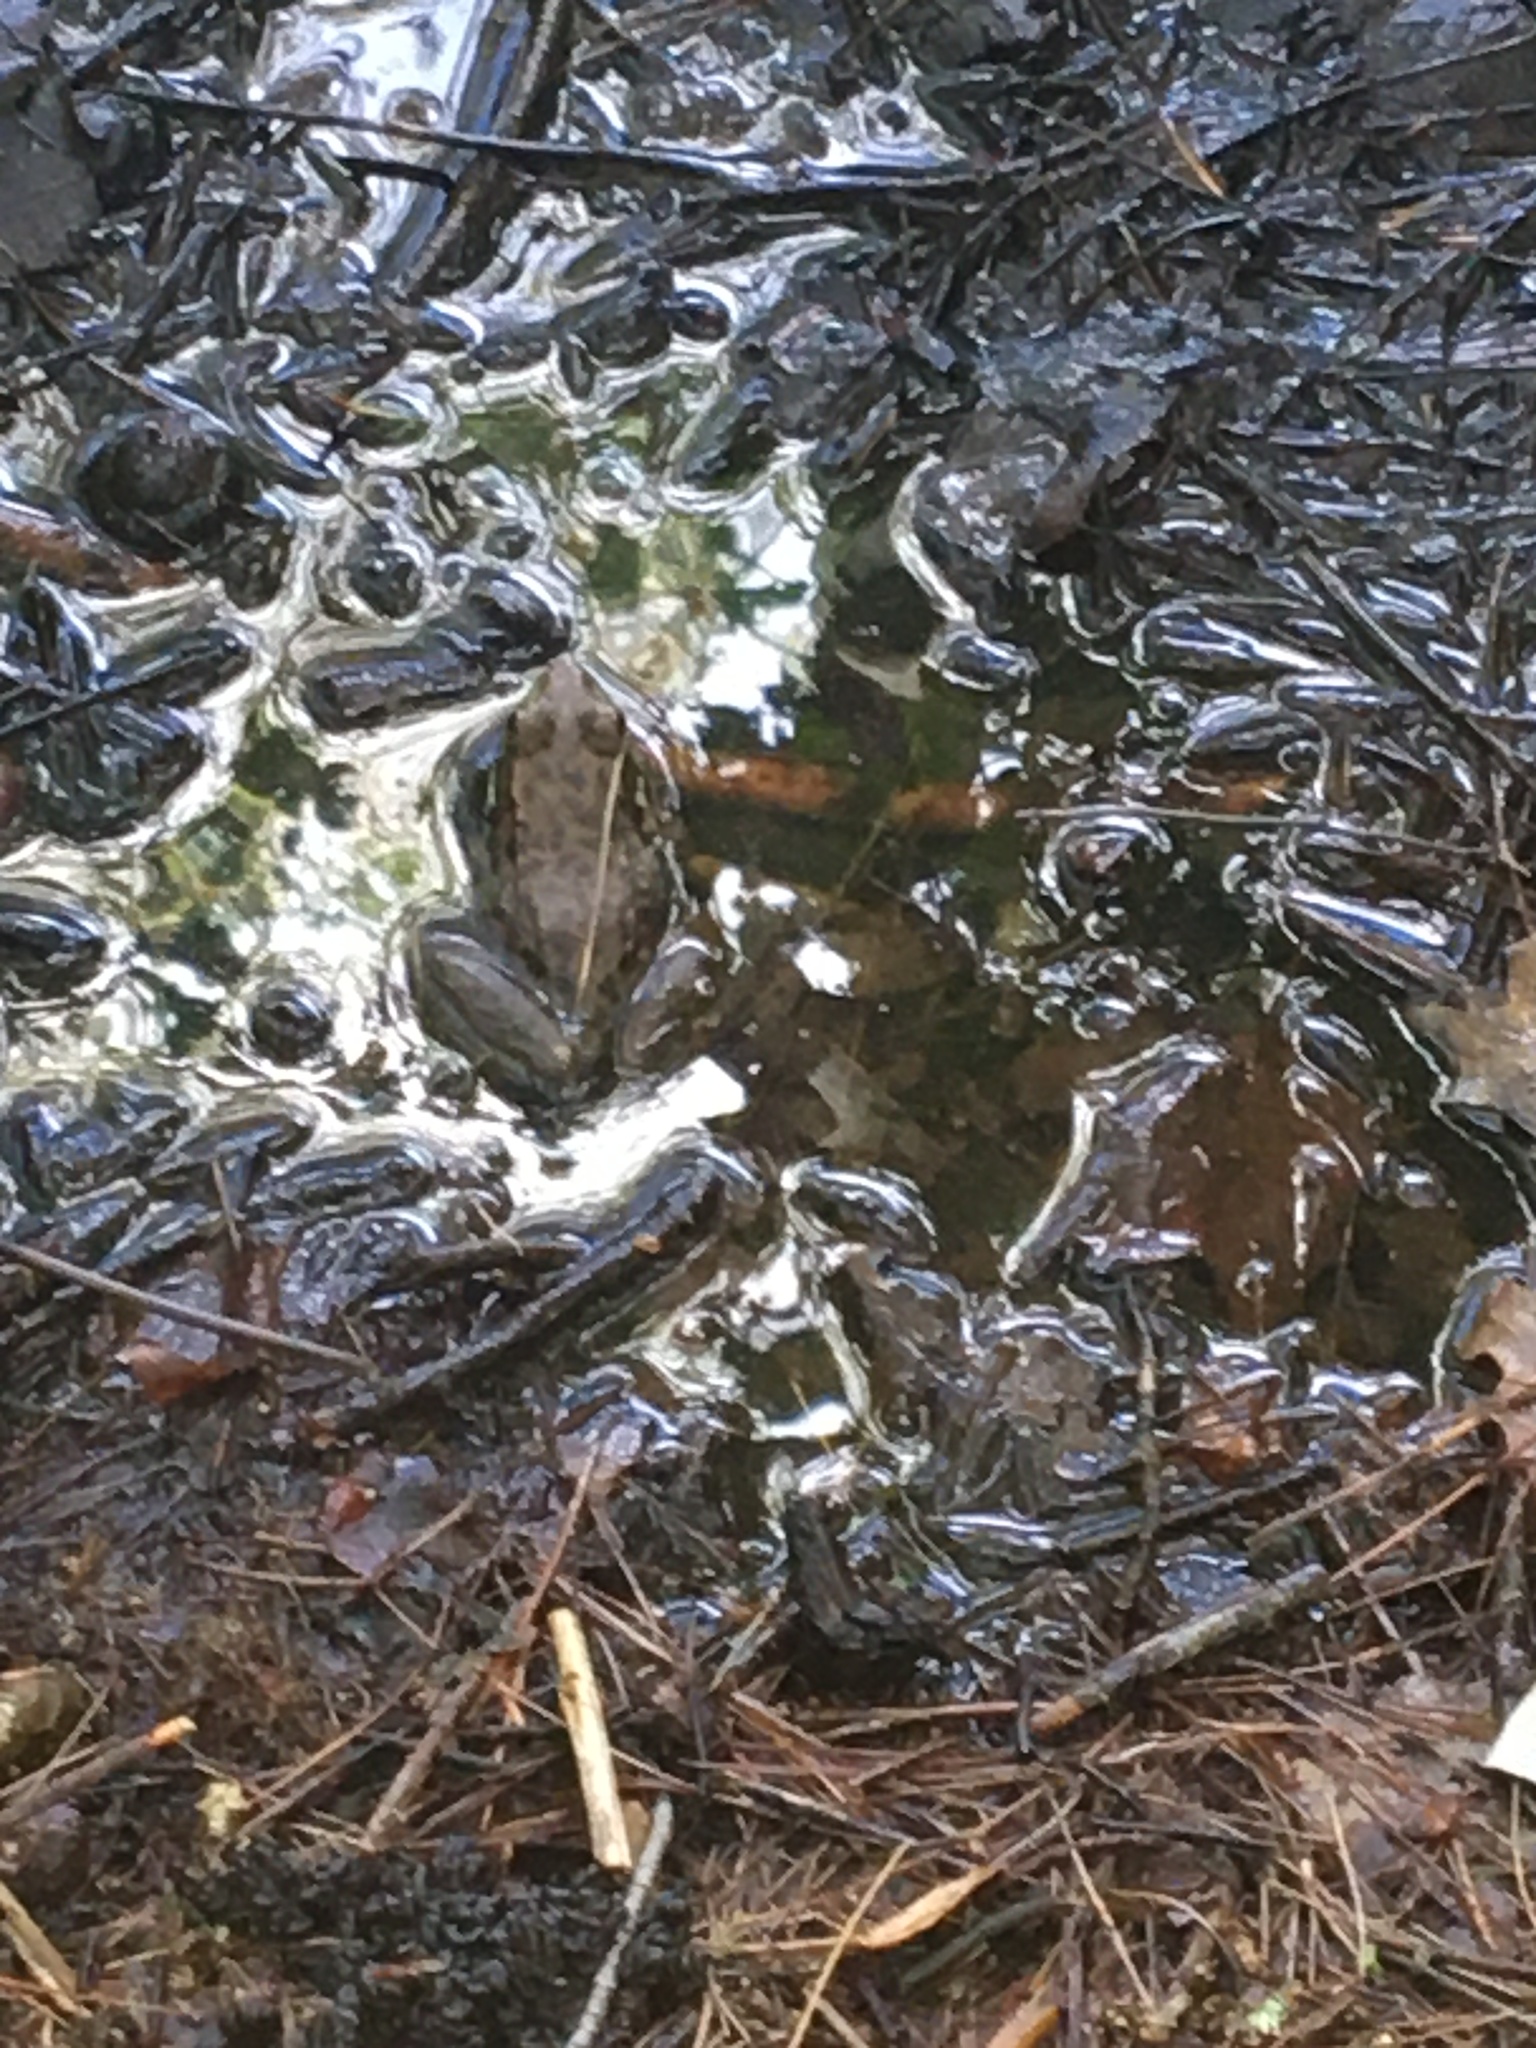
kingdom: Animalia
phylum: Chordata
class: Amphibia
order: Anura
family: Ranidae
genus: Lithobates
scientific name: Lithobates clamitans
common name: Green frog
